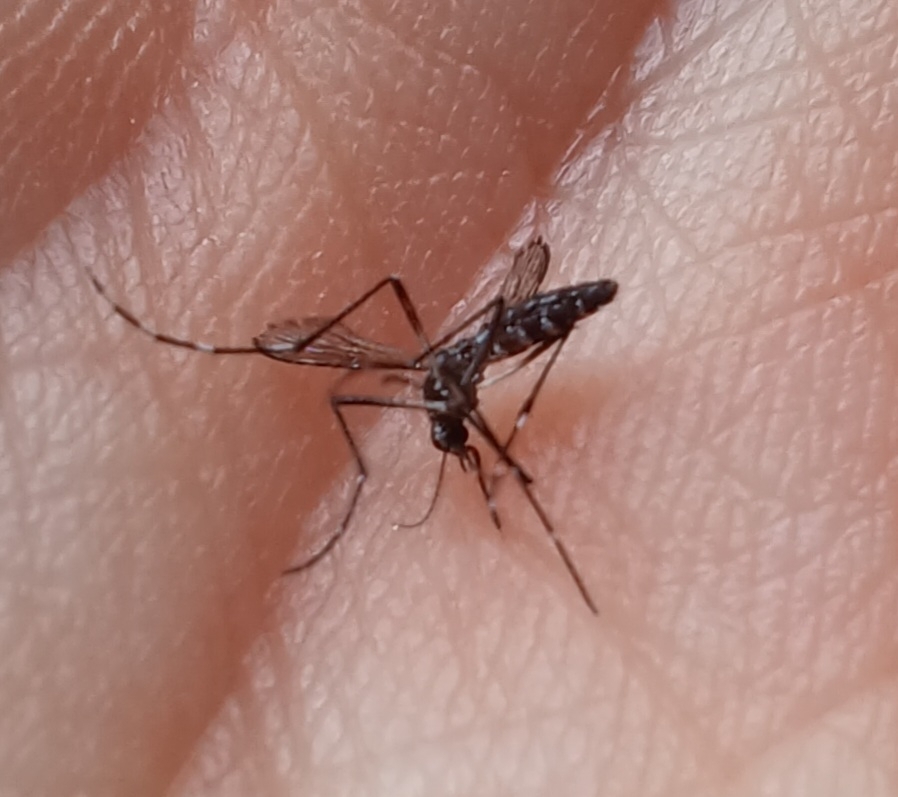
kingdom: Animalia
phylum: Arthropoda
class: Insecta
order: Diptera
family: Culicidae
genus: Aedes
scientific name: Aedes albopictus
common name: Tiger mosquito
